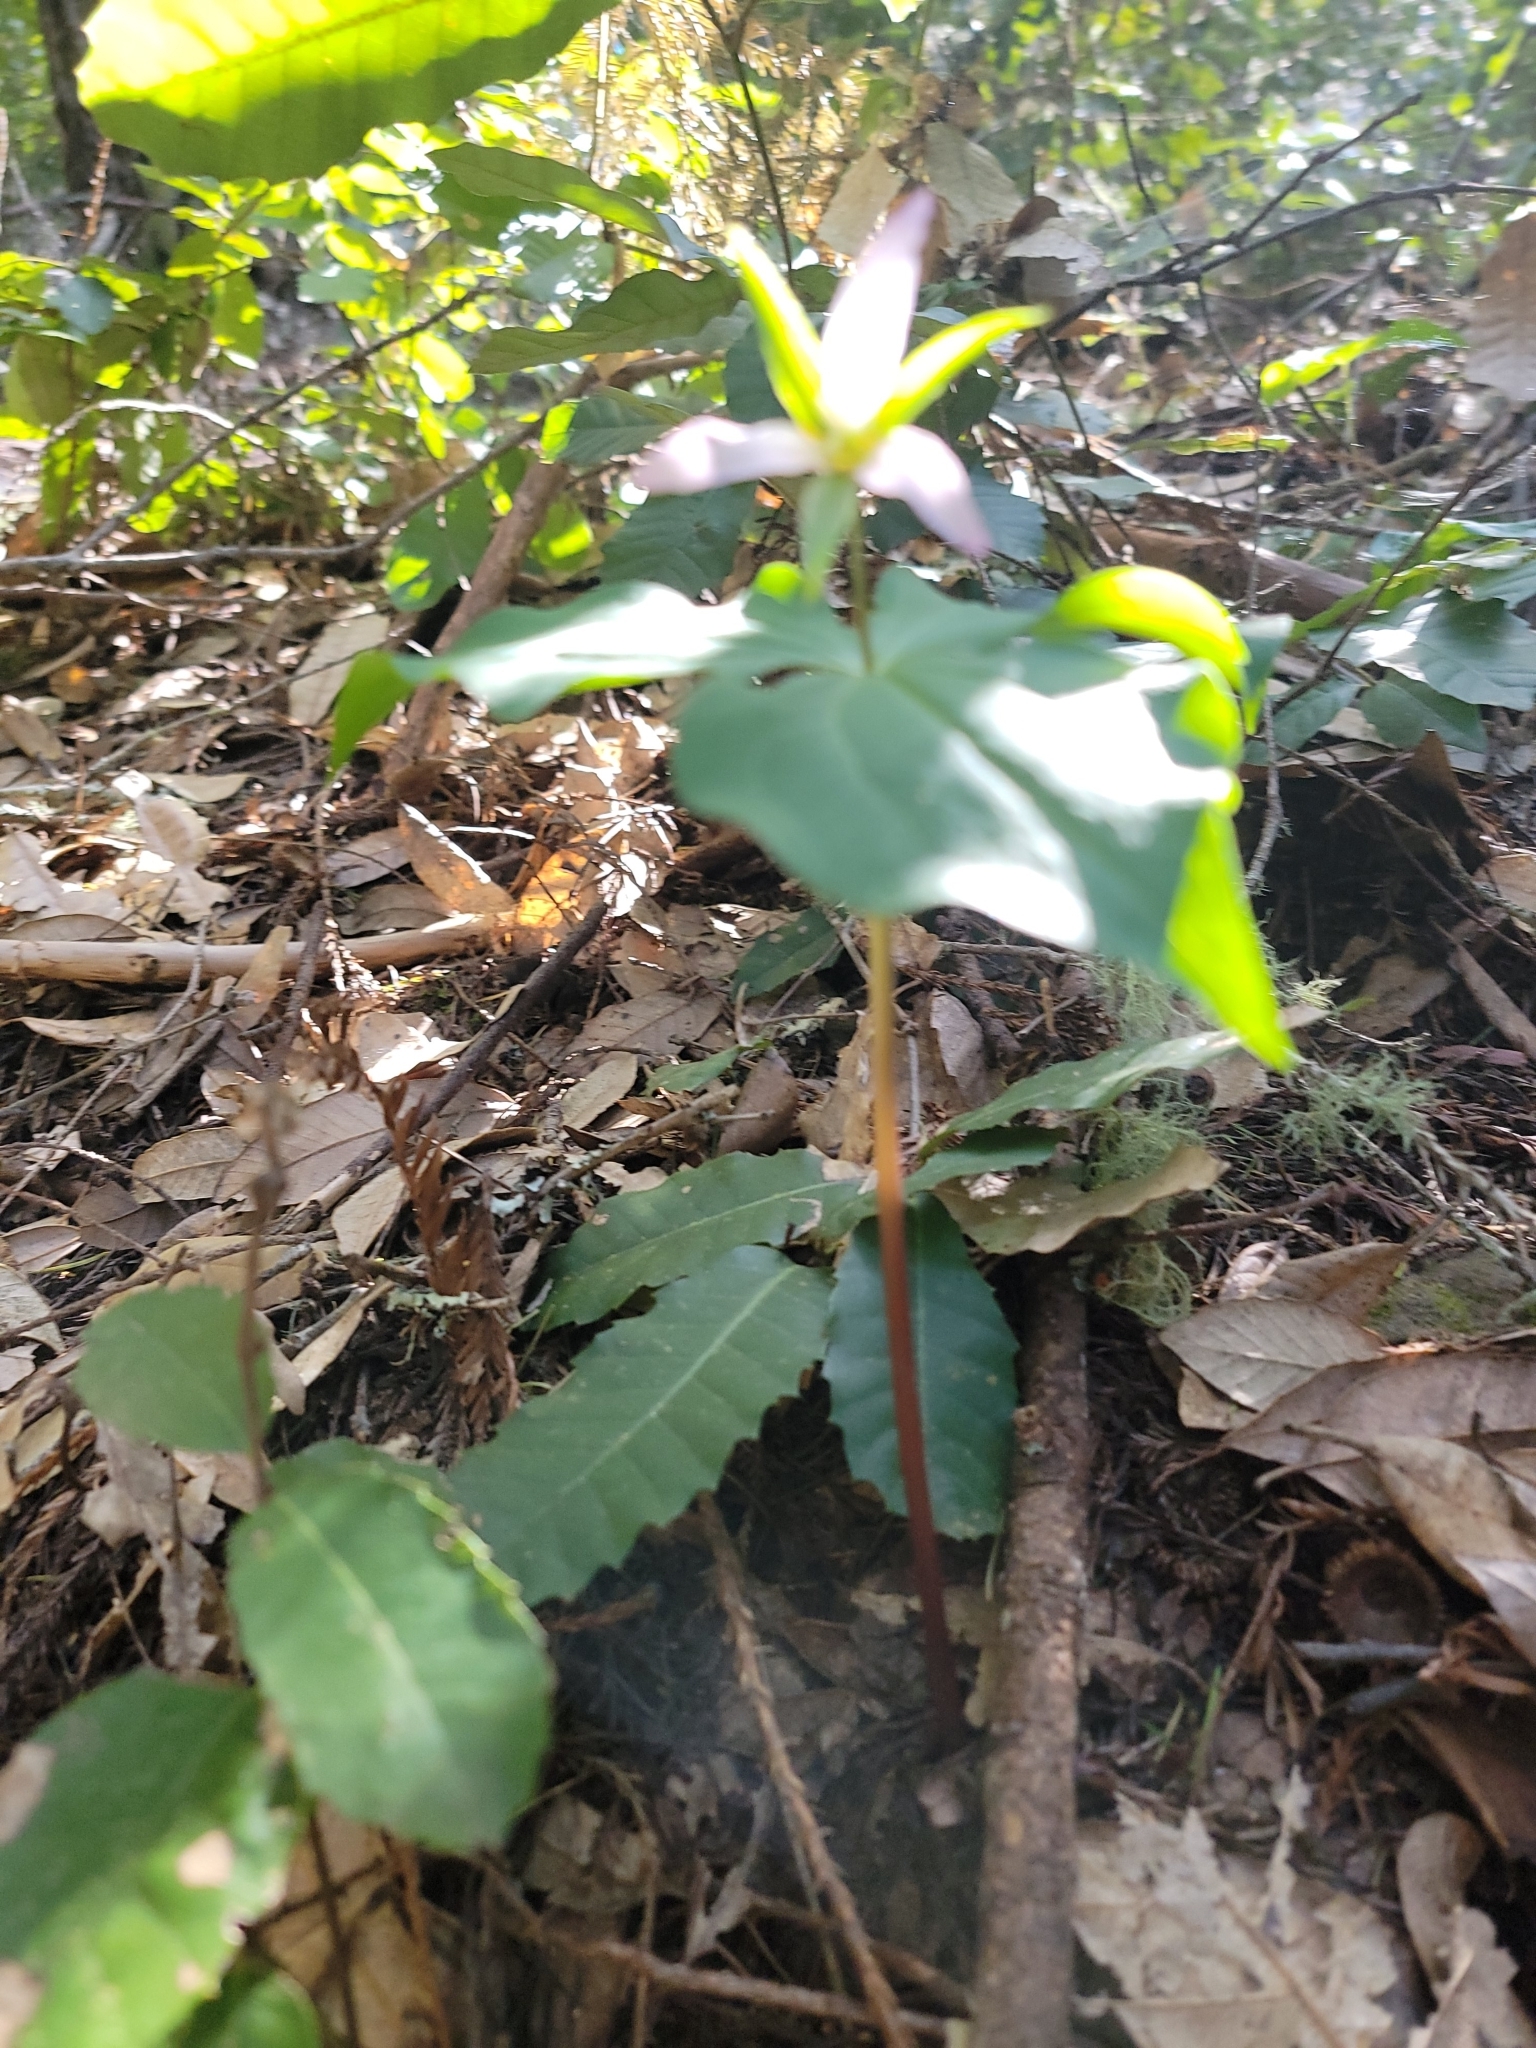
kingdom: Plantae
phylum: Tracheophyta
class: Liliopsida
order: Liliales
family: Melanthiaceae
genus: Trillium
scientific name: Trillium ovatum
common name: Pacific trillium
